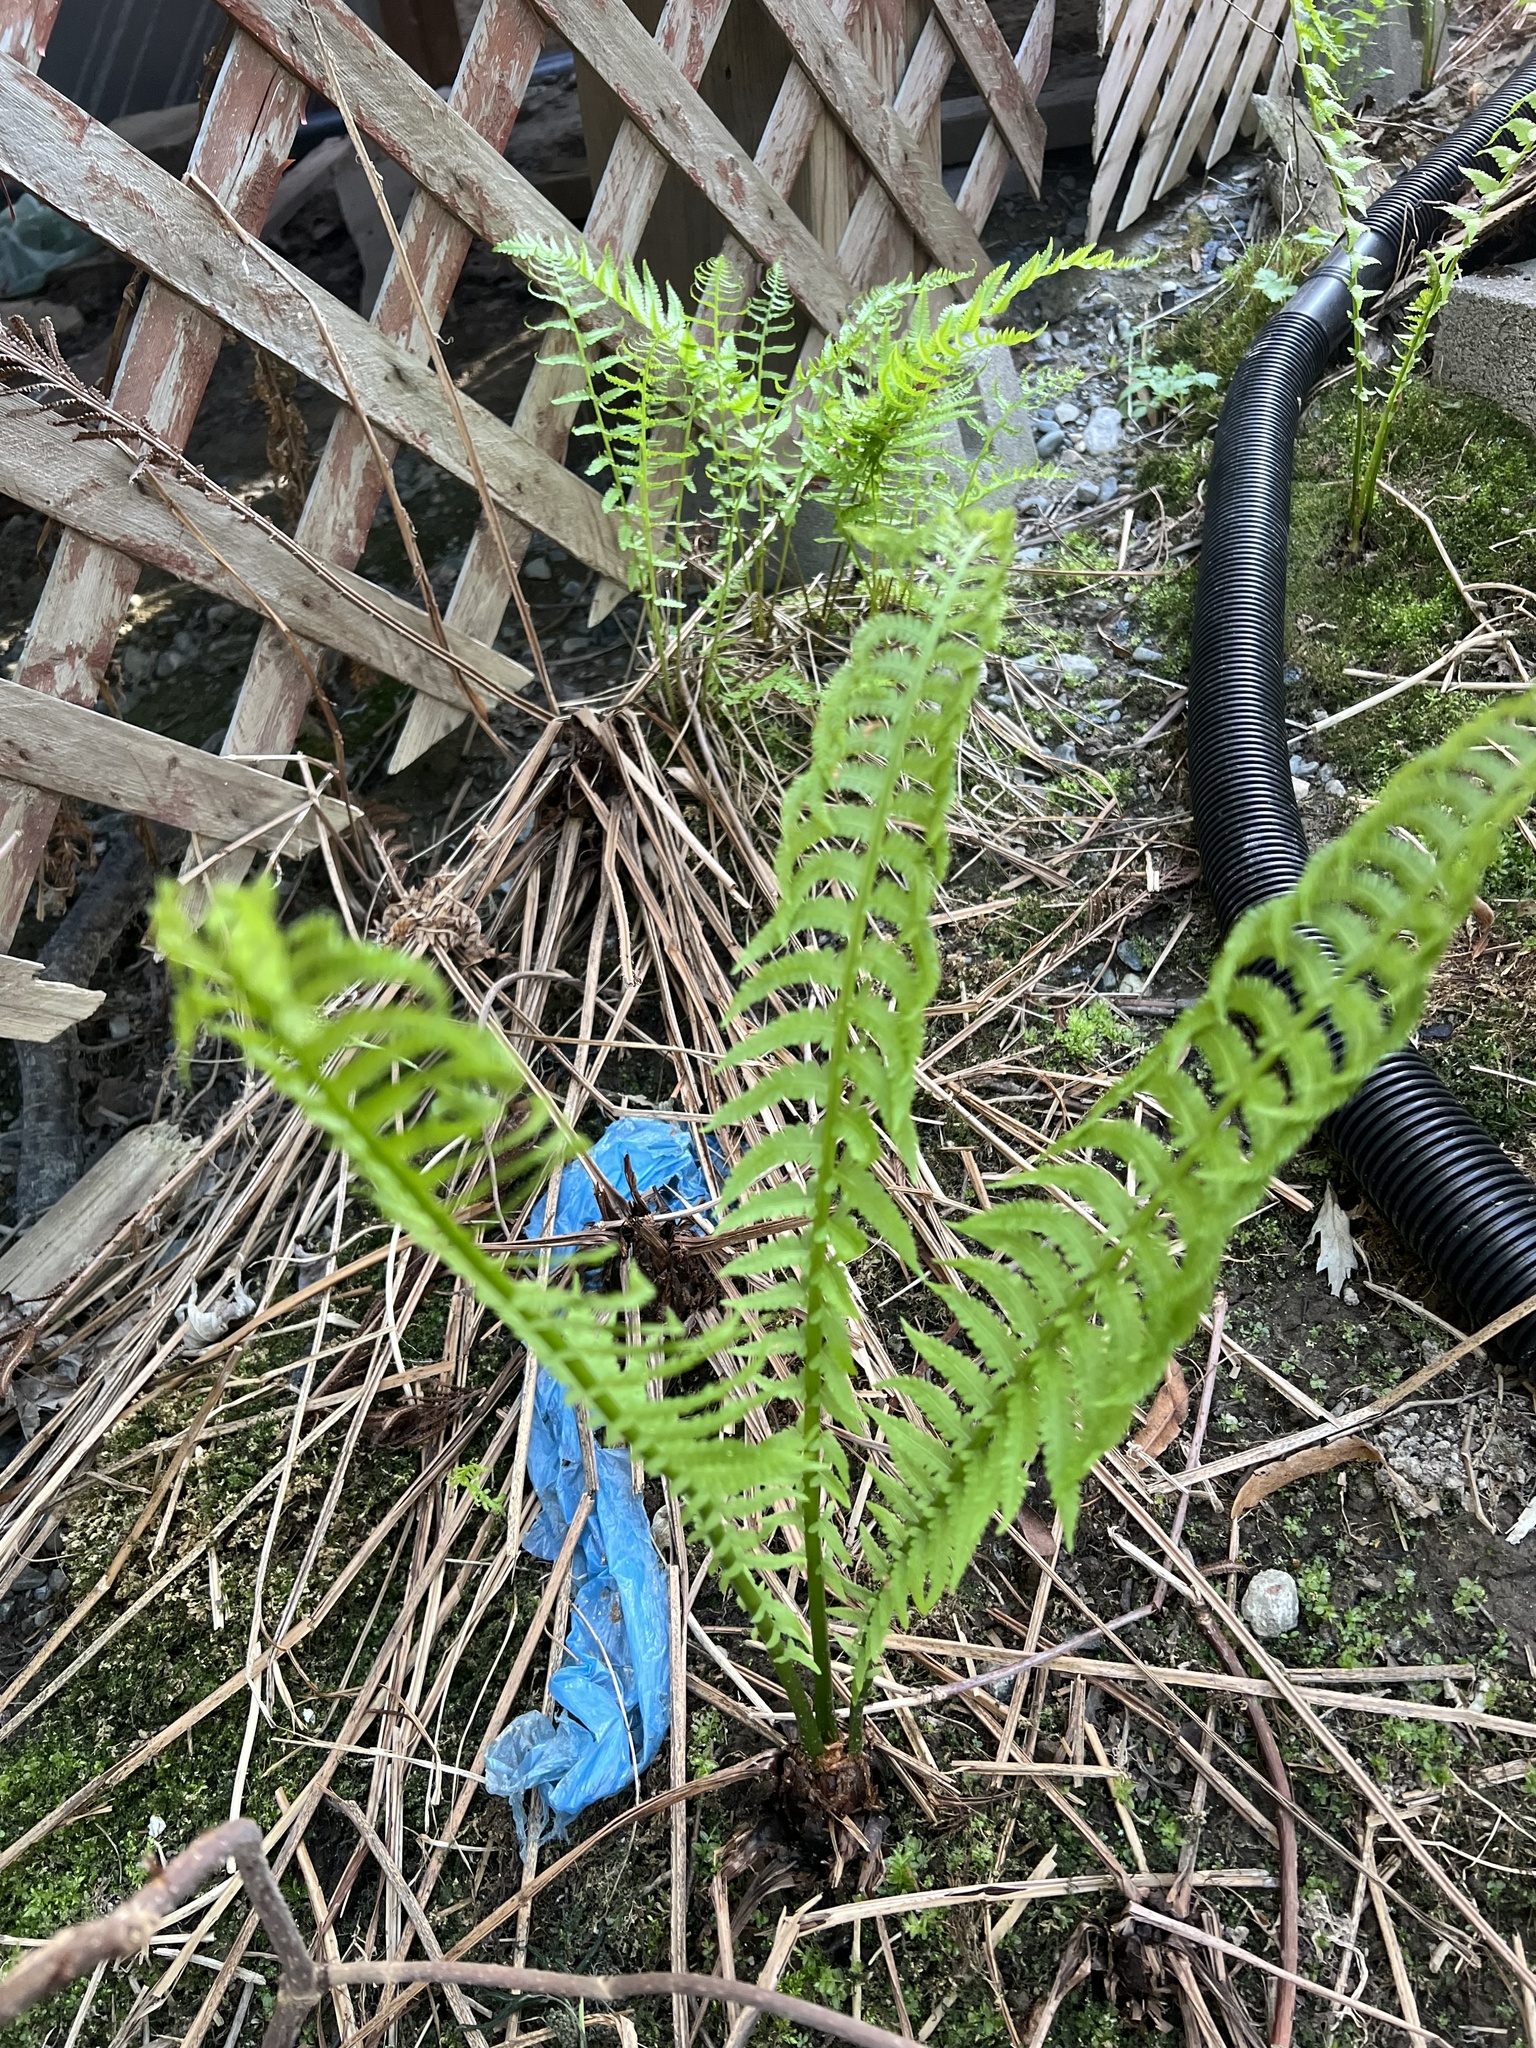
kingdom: Plantae
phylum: Tracheophyta
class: Polypodiopsida
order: Polypodiales
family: Onocleaceae
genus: Matteuccia
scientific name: Matteuccia struthiopteris
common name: Ostrich fern
